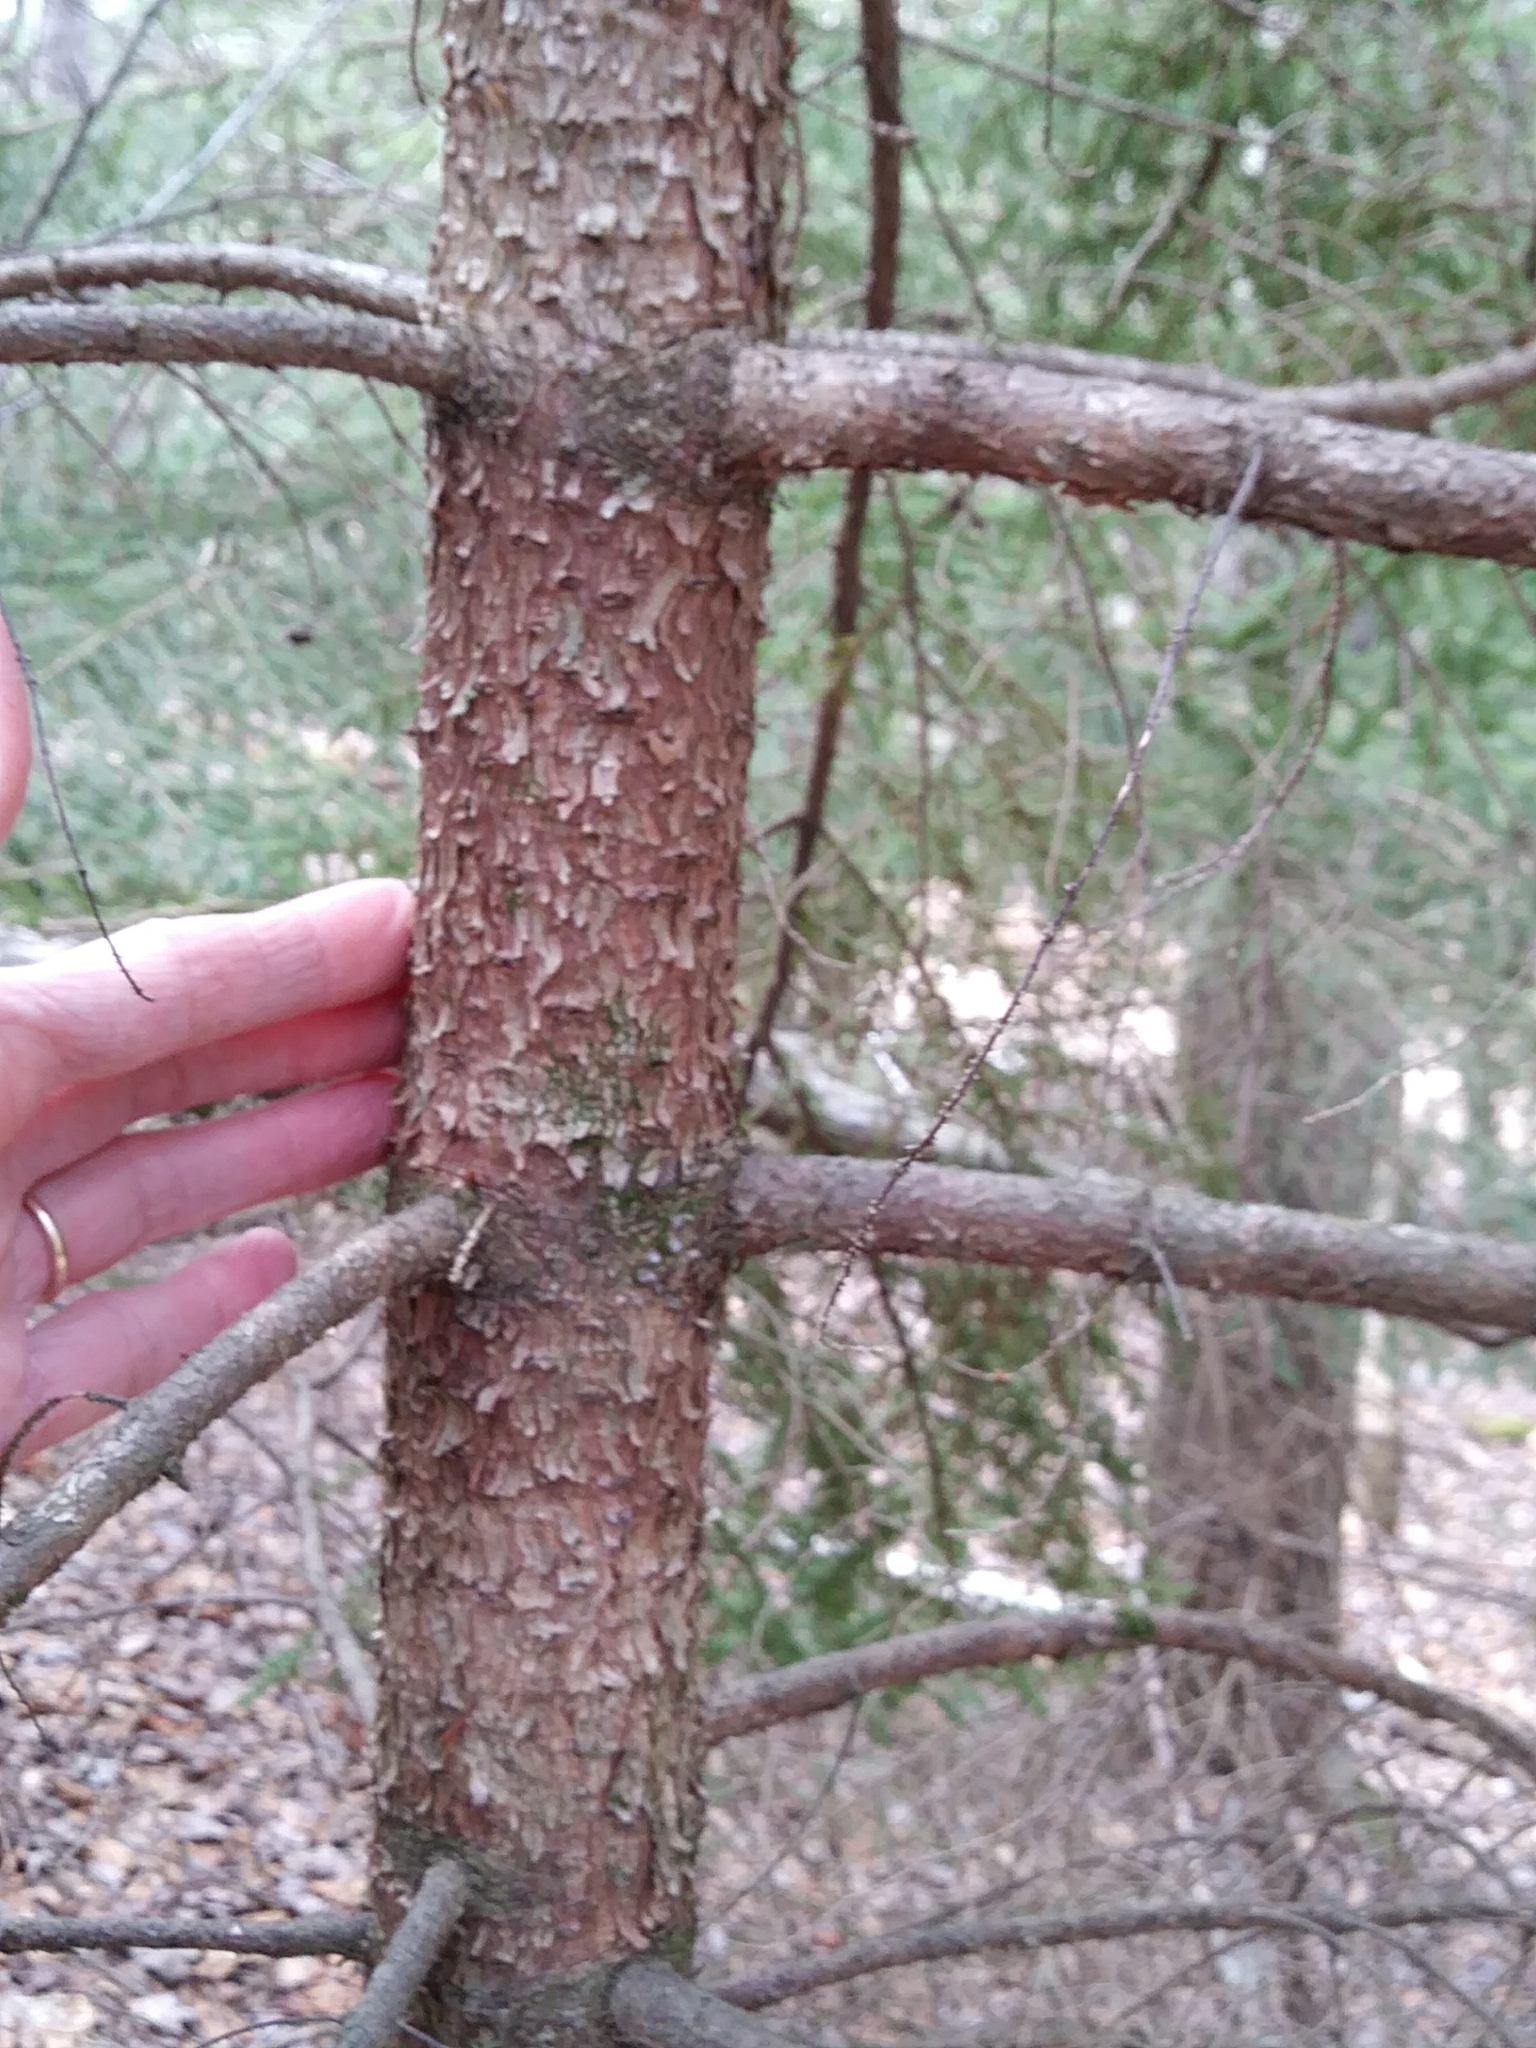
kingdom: Plantae
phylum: Tracheophyta
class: Pinopsida
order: Pinales
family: Pinaceae
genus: Picea
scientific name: Picea rubens
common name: Red spruce
